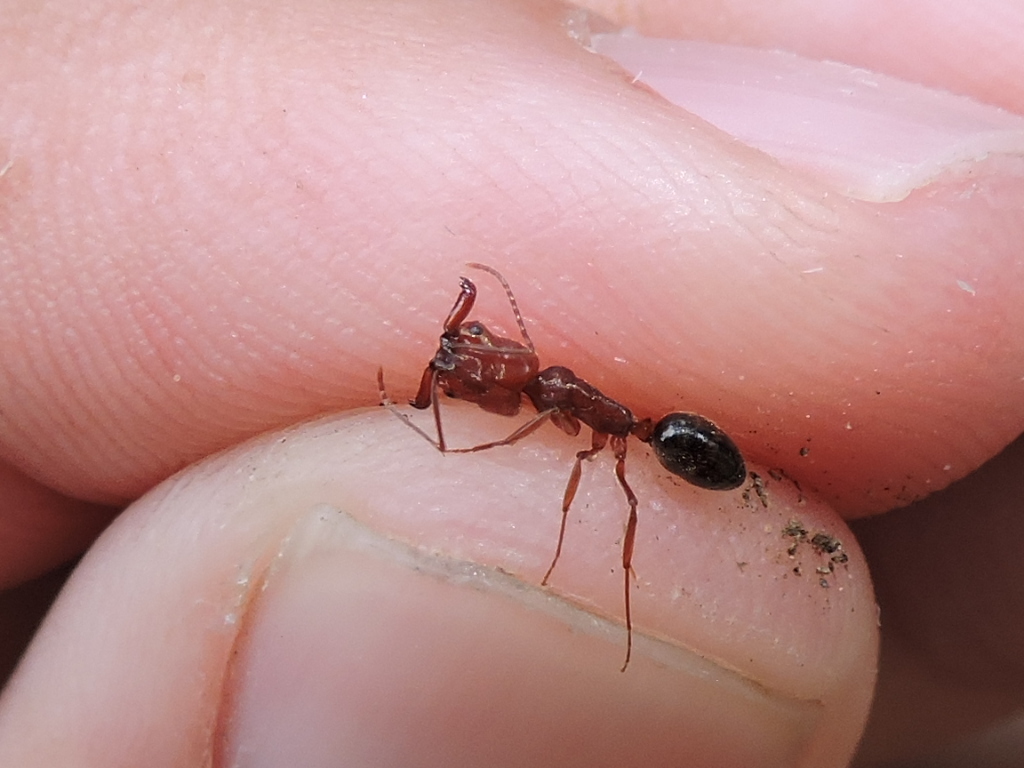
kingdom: Animalia
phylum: Arthropoda
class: Insecta
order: Hymenoptera
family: Formicidae
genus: Odontomachus
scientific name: Odontomachus clarus
